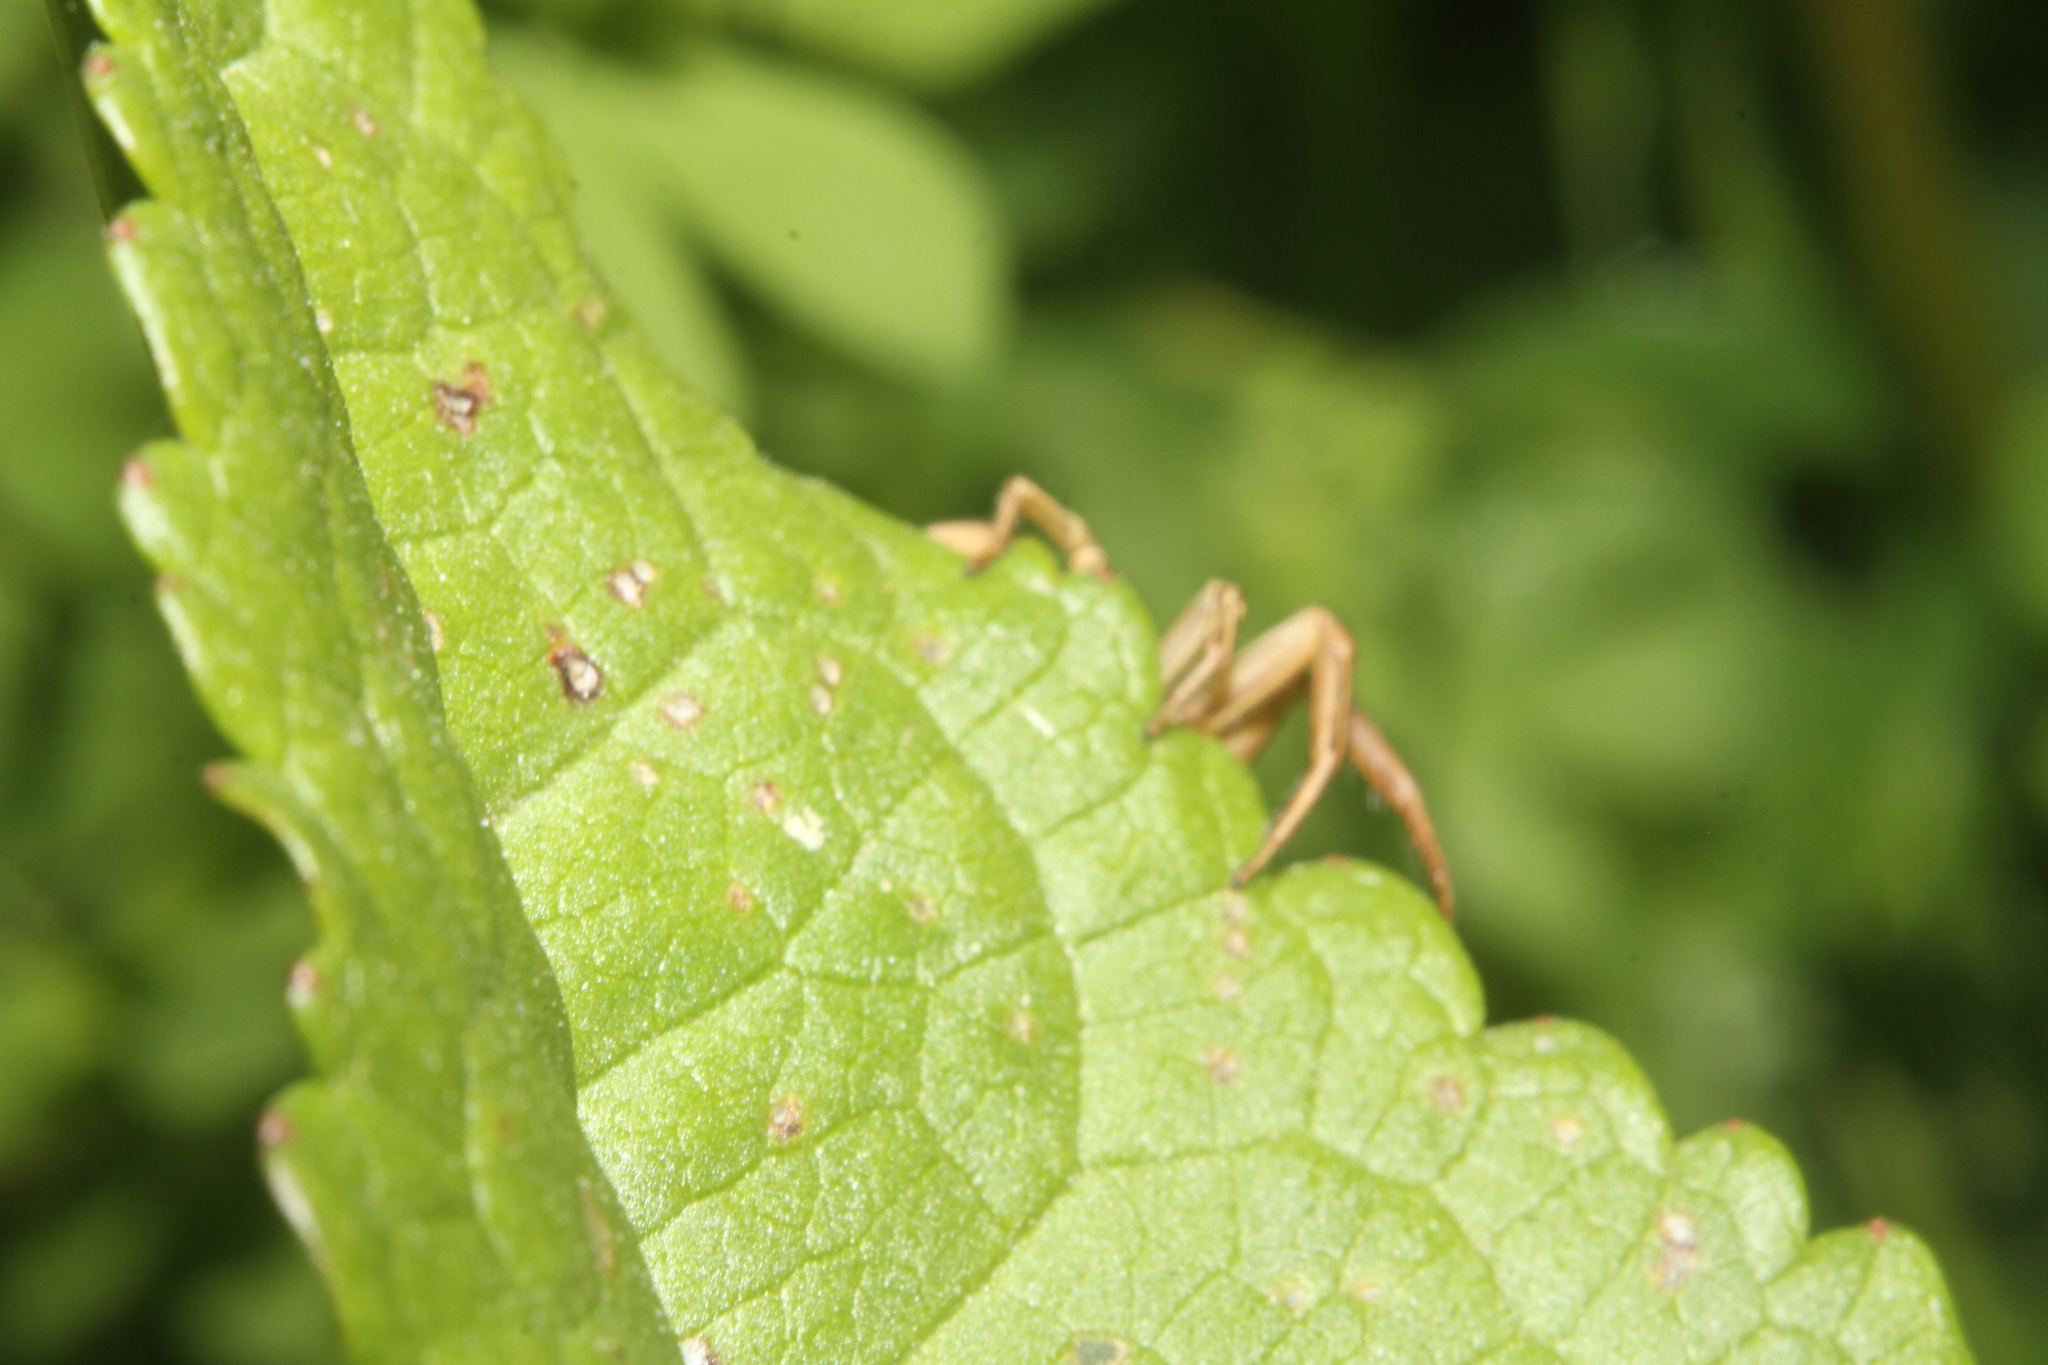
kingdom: Animalia
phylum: Arthropoda
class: Arachnida
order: Araneae
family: Thomisidae
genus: Xysticus
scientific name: Xysticus
